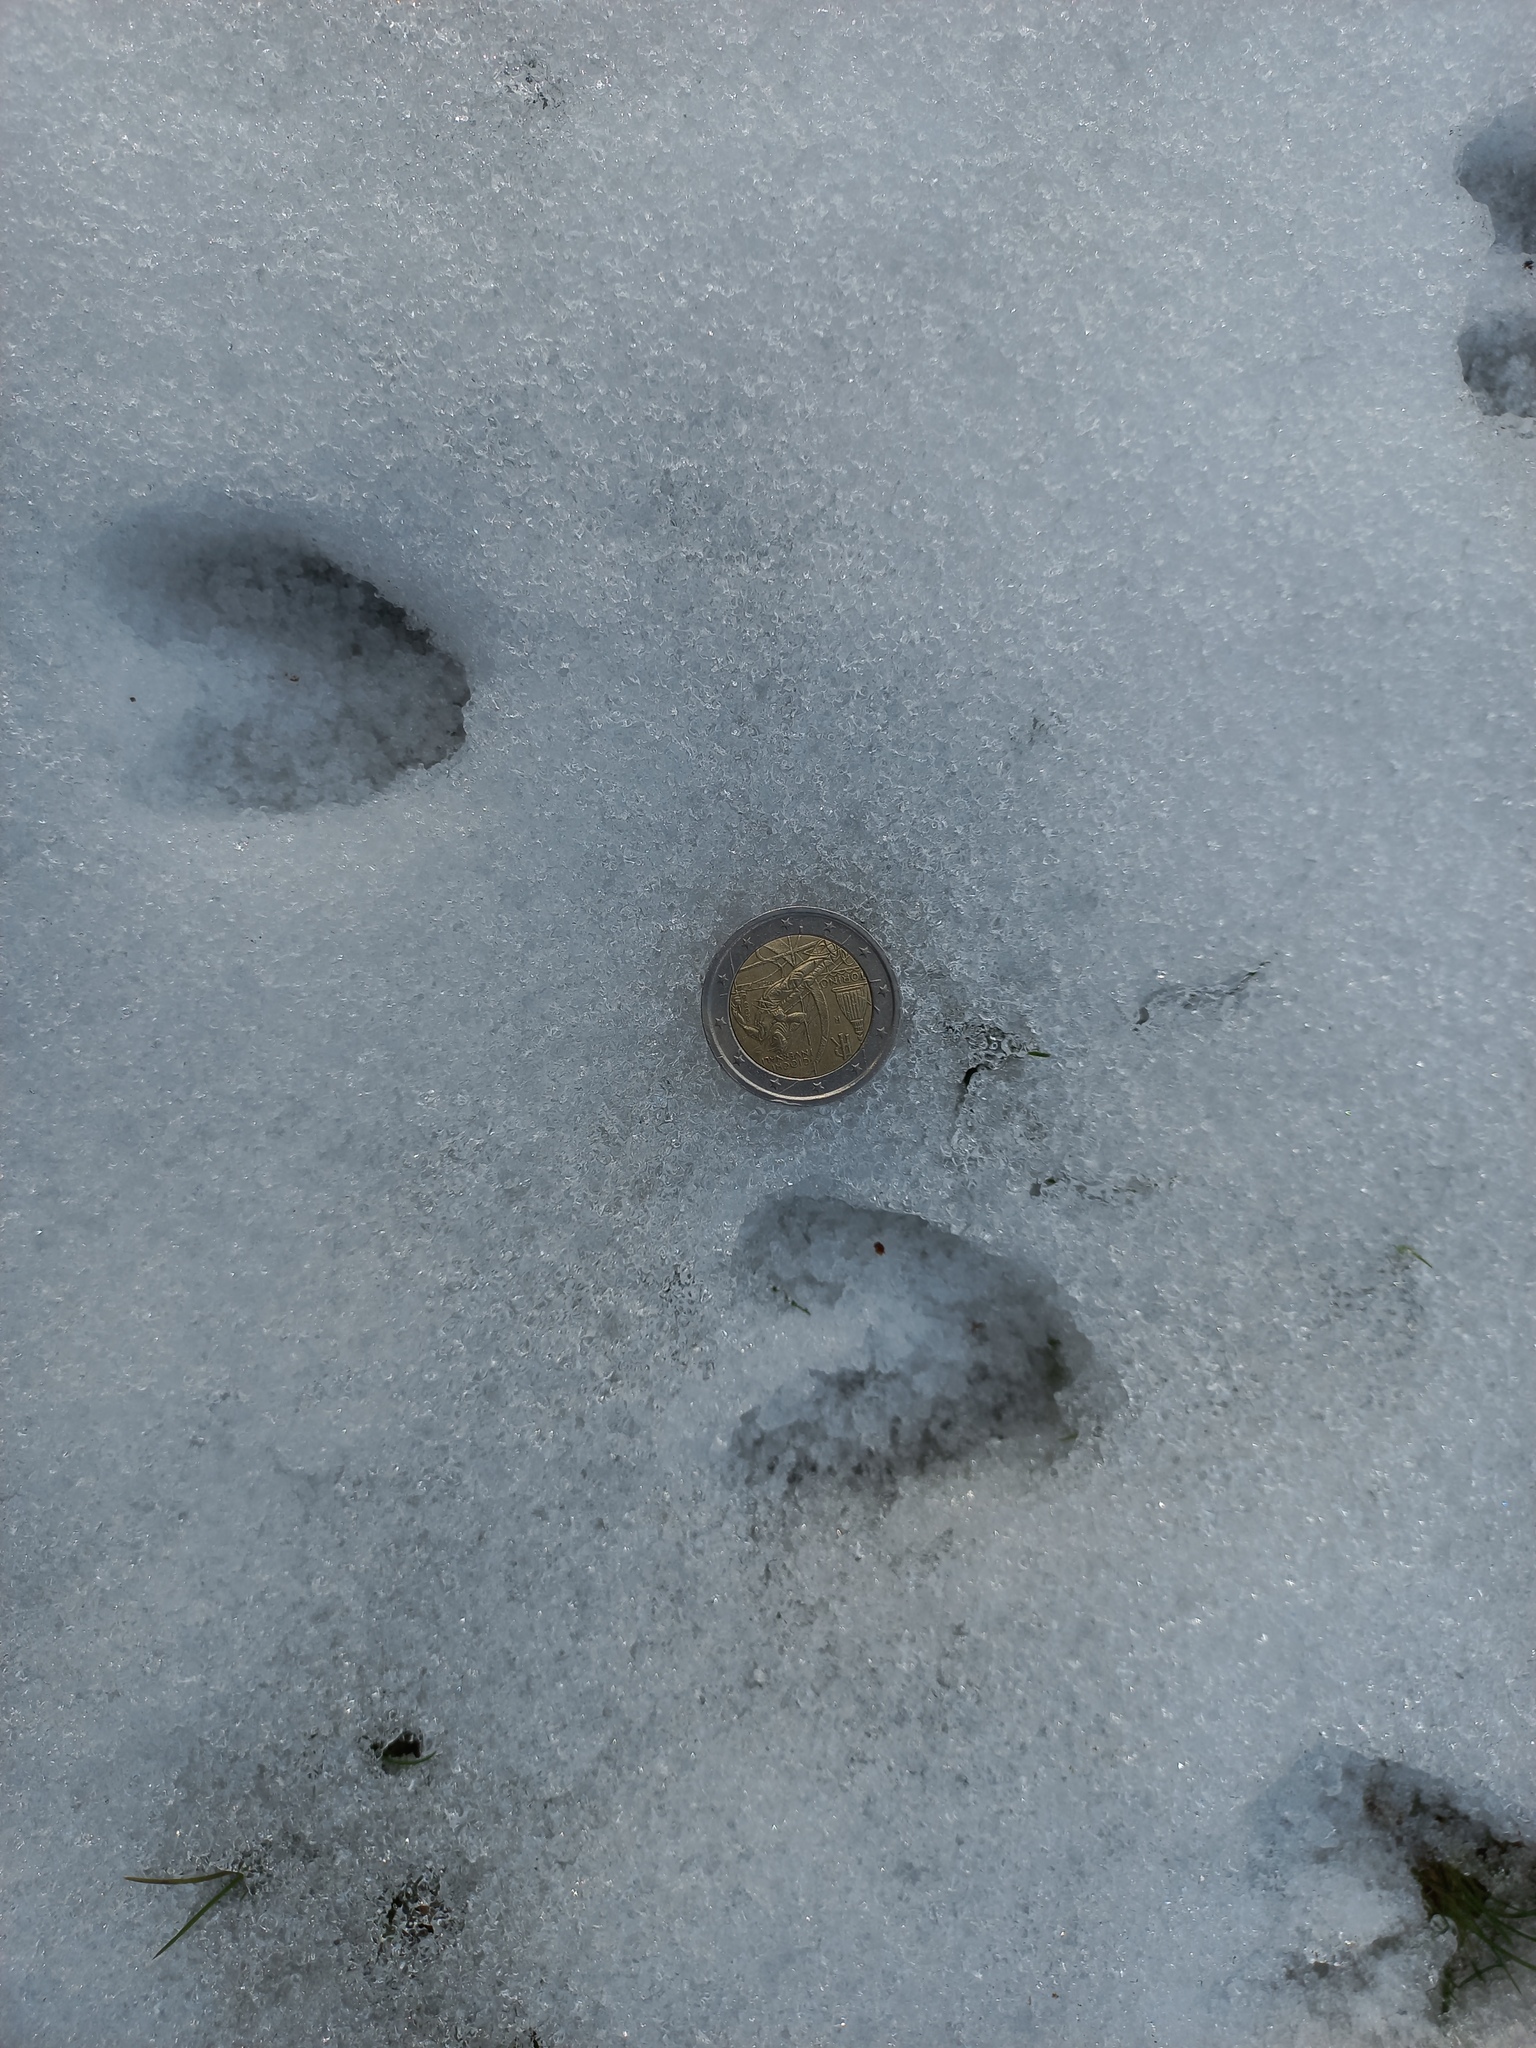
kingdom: Animalia
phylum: Chordata
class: Mammalia
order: Artiodactyla
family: Cervidae
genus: Capreolus
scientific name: Capreolus capreolus
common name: Western roe deer
